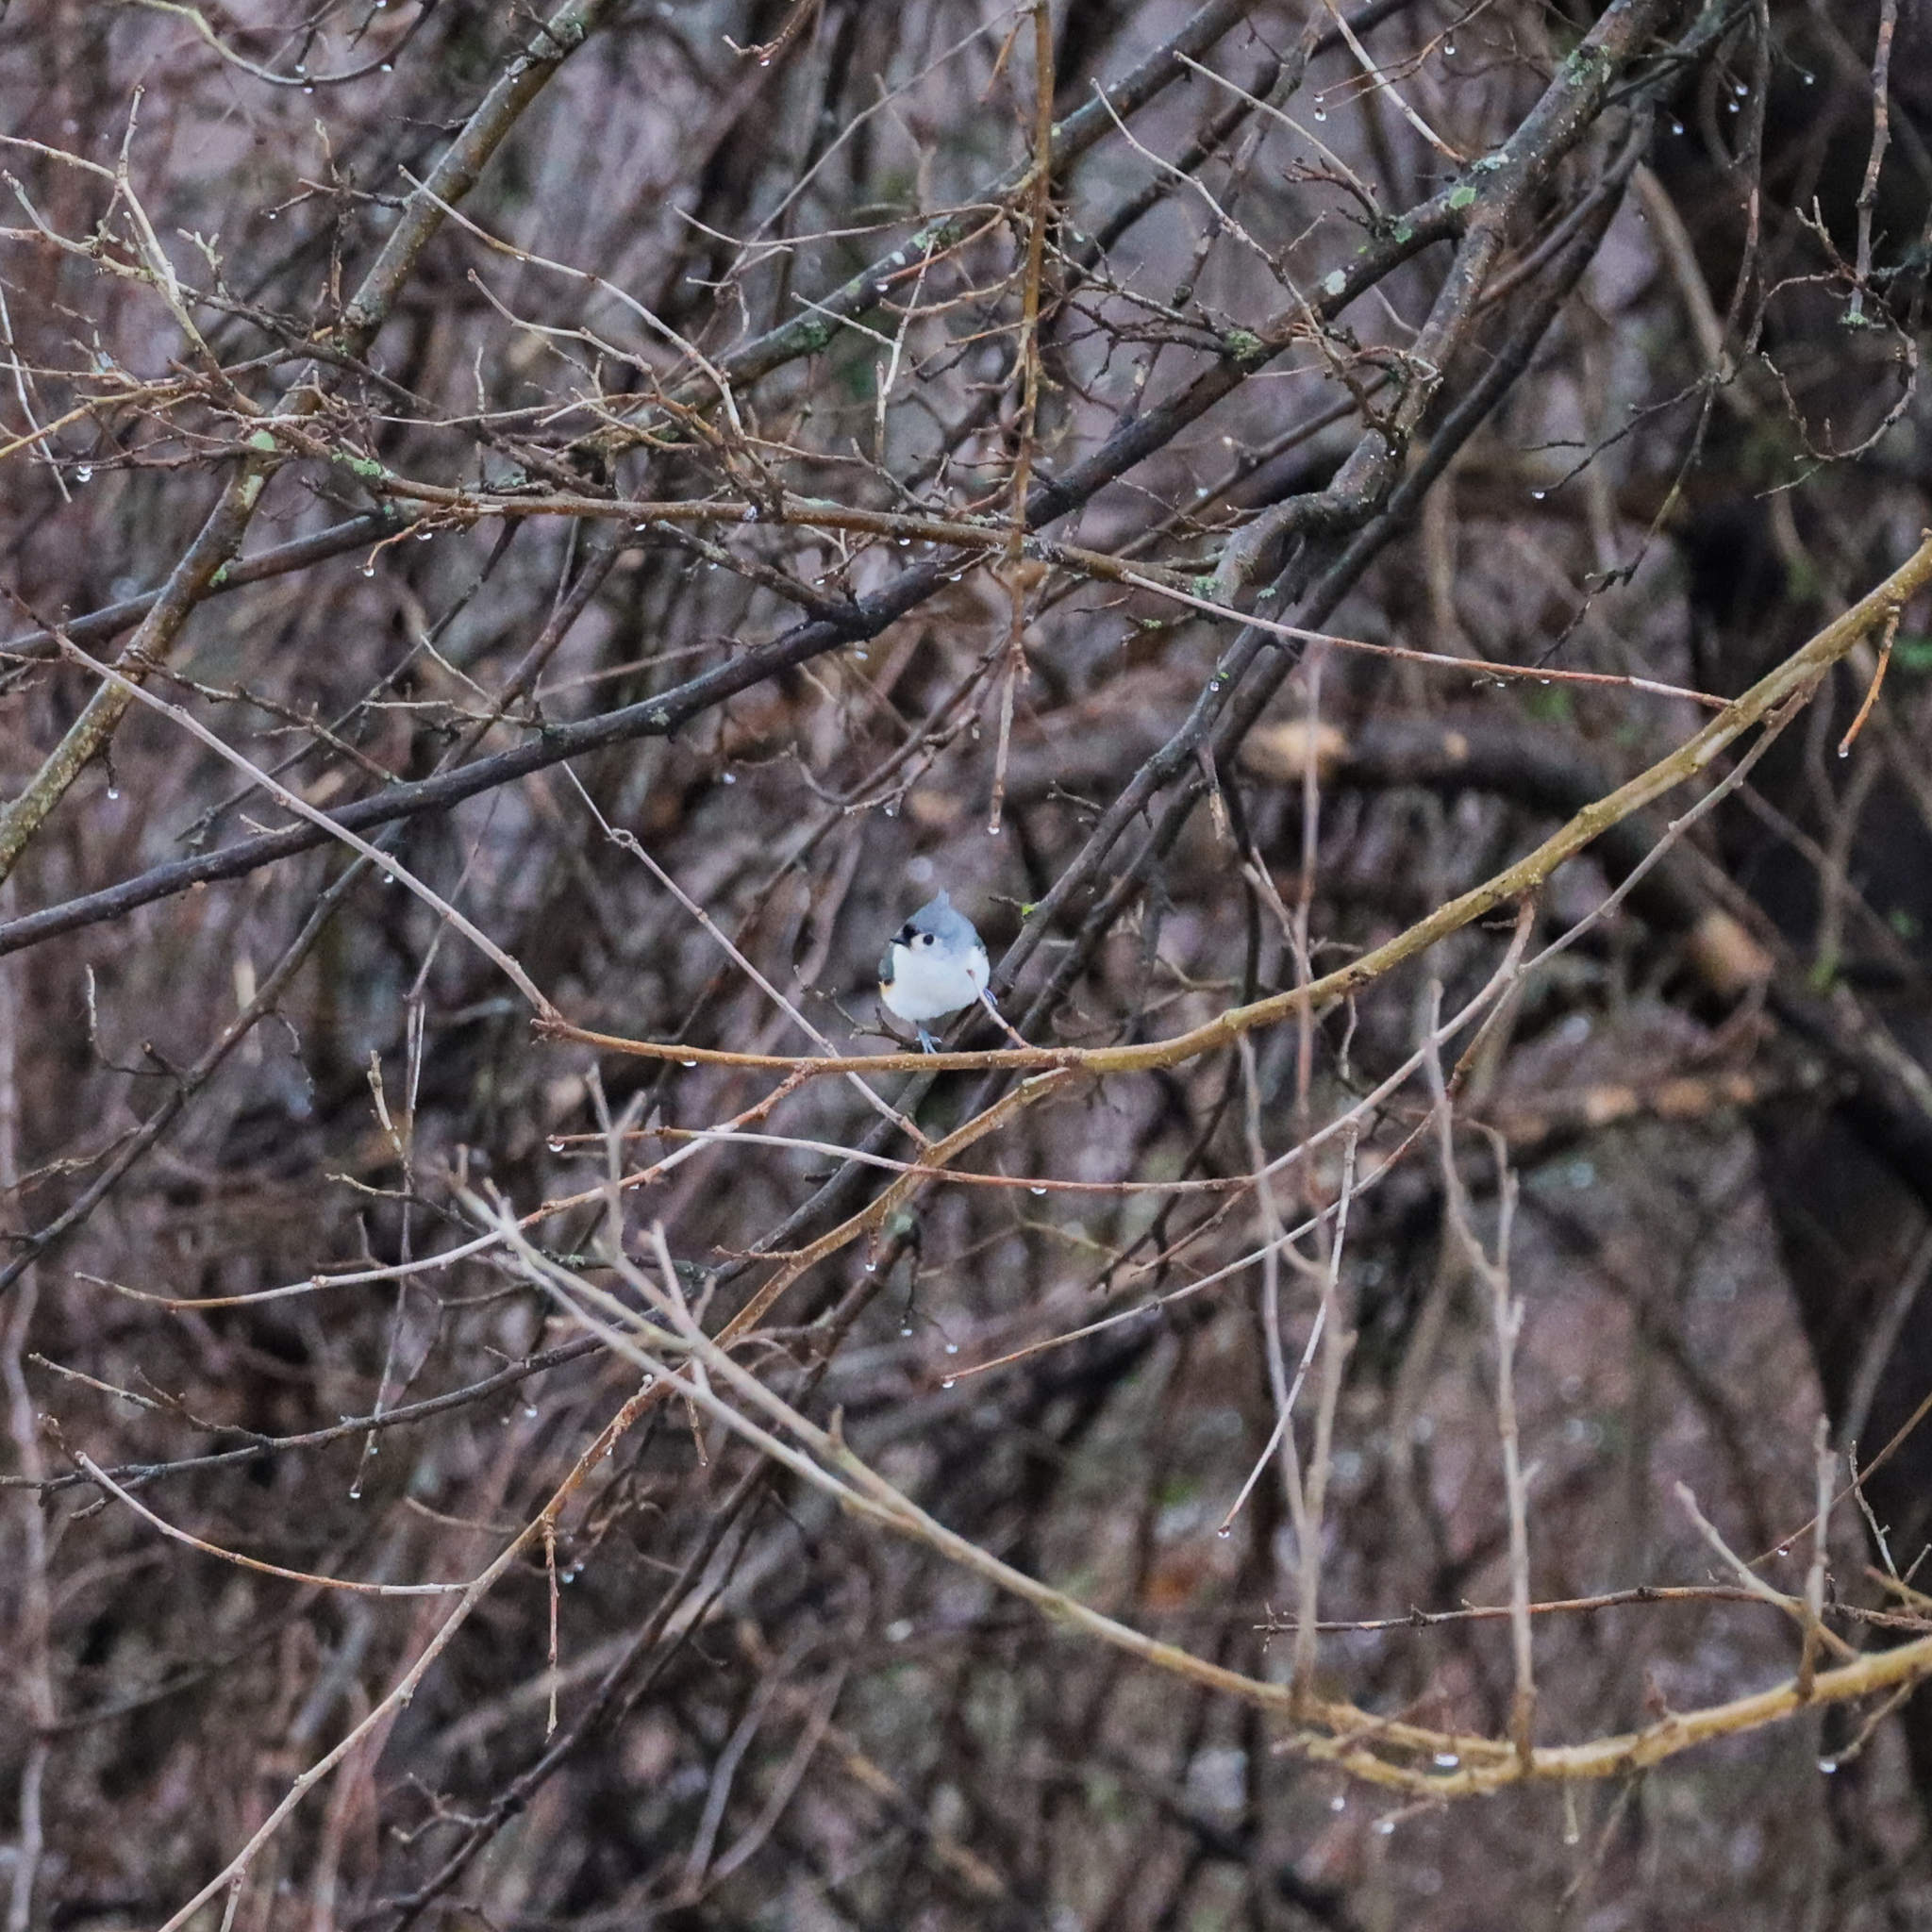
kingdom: Animalia
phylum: Chordata
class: Aves
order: Passeriformes
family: Paridae
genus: Baeolophus
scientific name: Baeolophus bicolor
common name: Tufted titmouse
